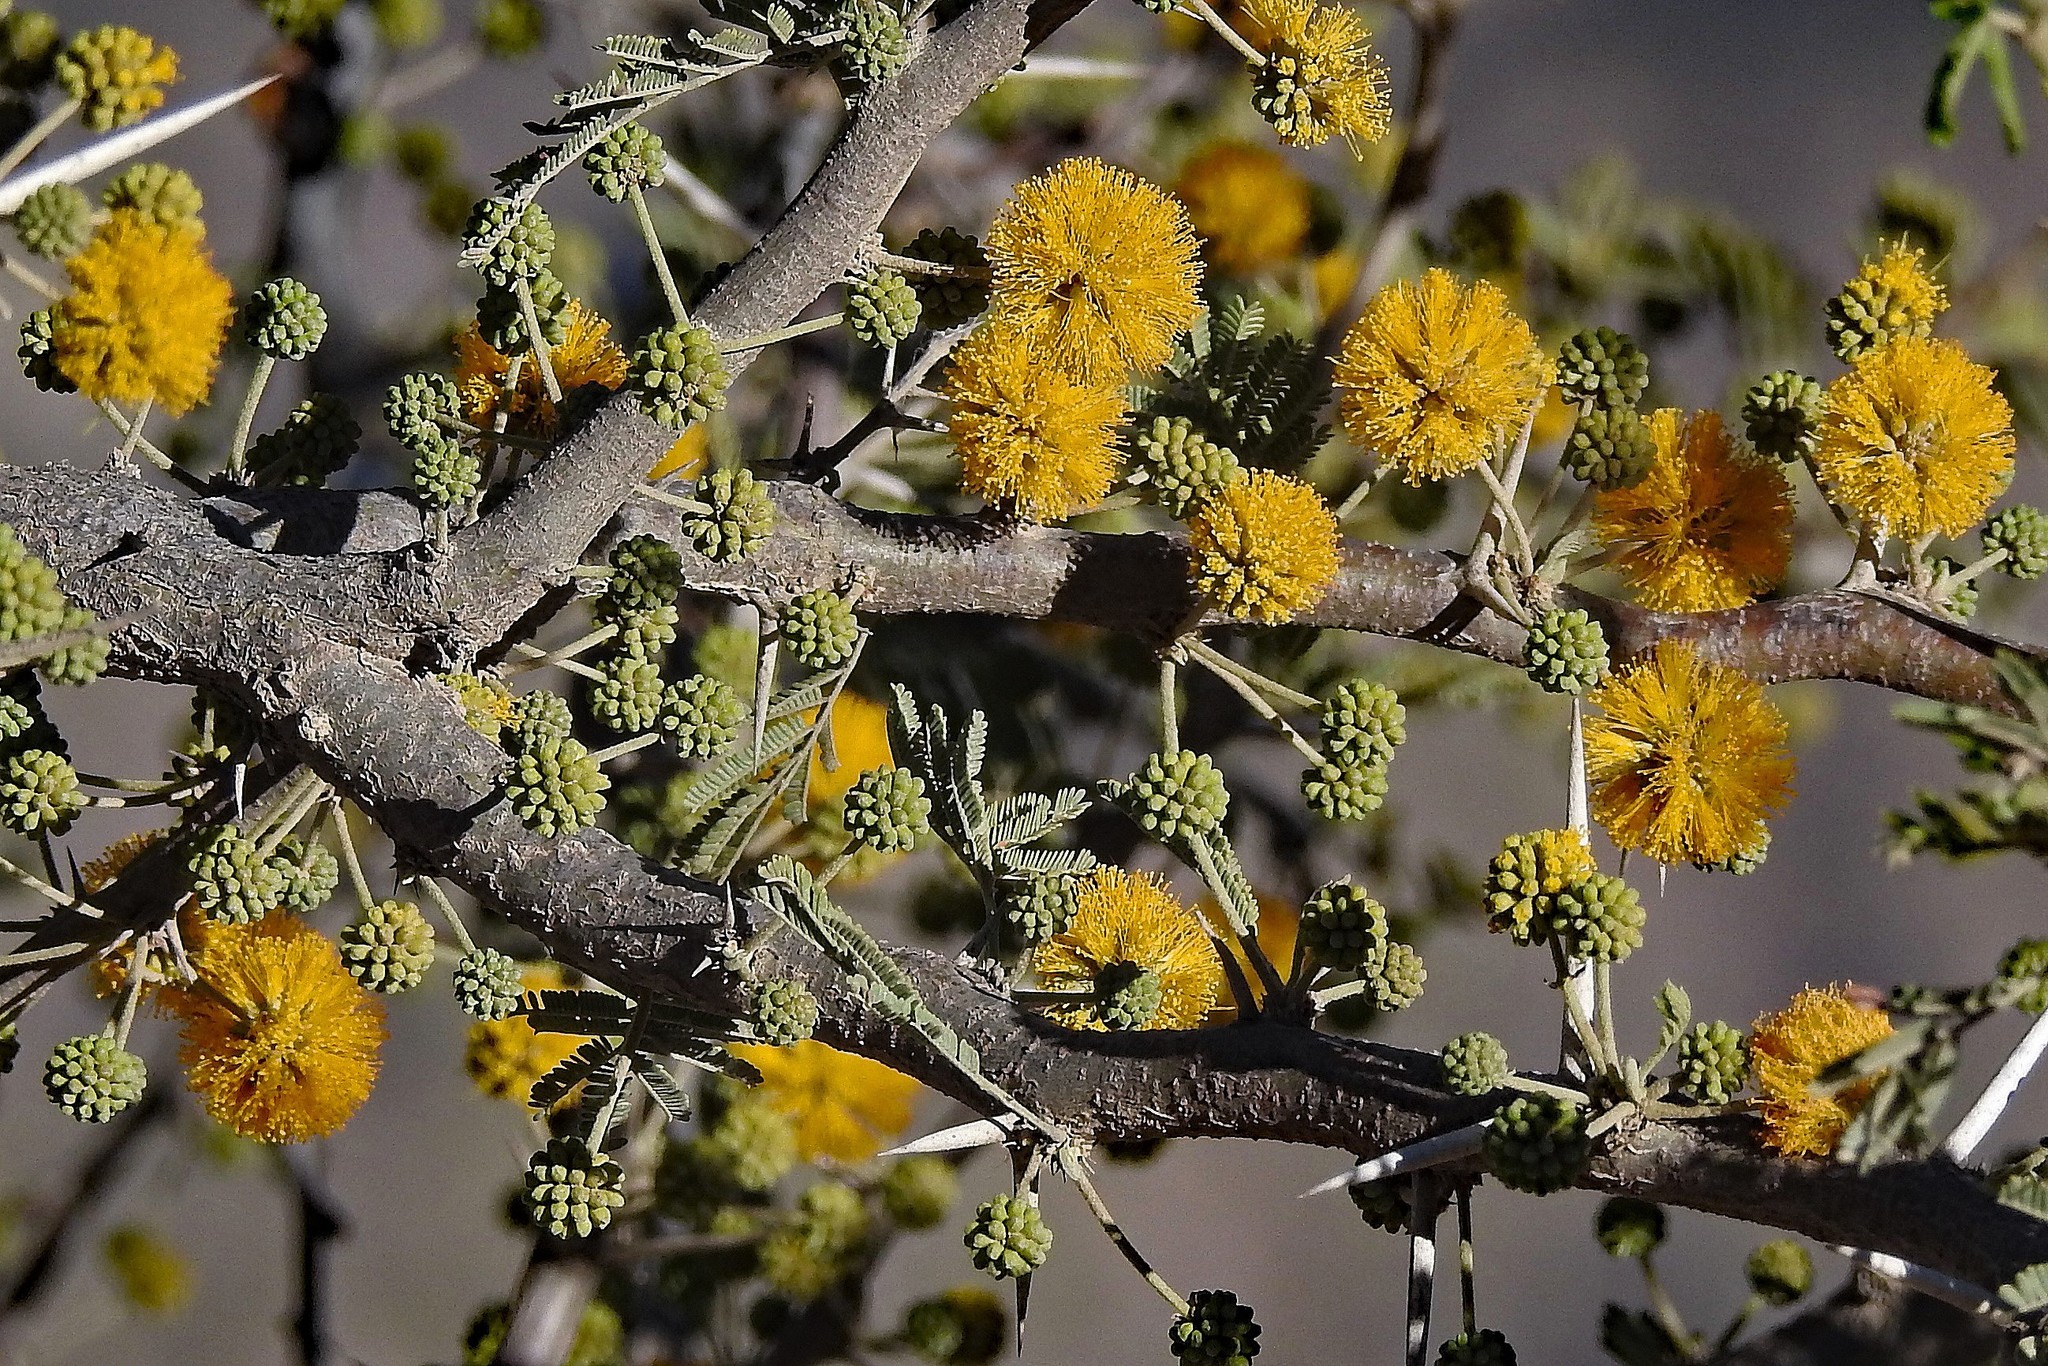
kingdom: Plantae
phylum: Tracheophyta
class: Magnoliopsida
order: Fabales
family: Fabaceae
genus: Vachellia
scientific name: Vachellia caven
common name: Roman cassie
